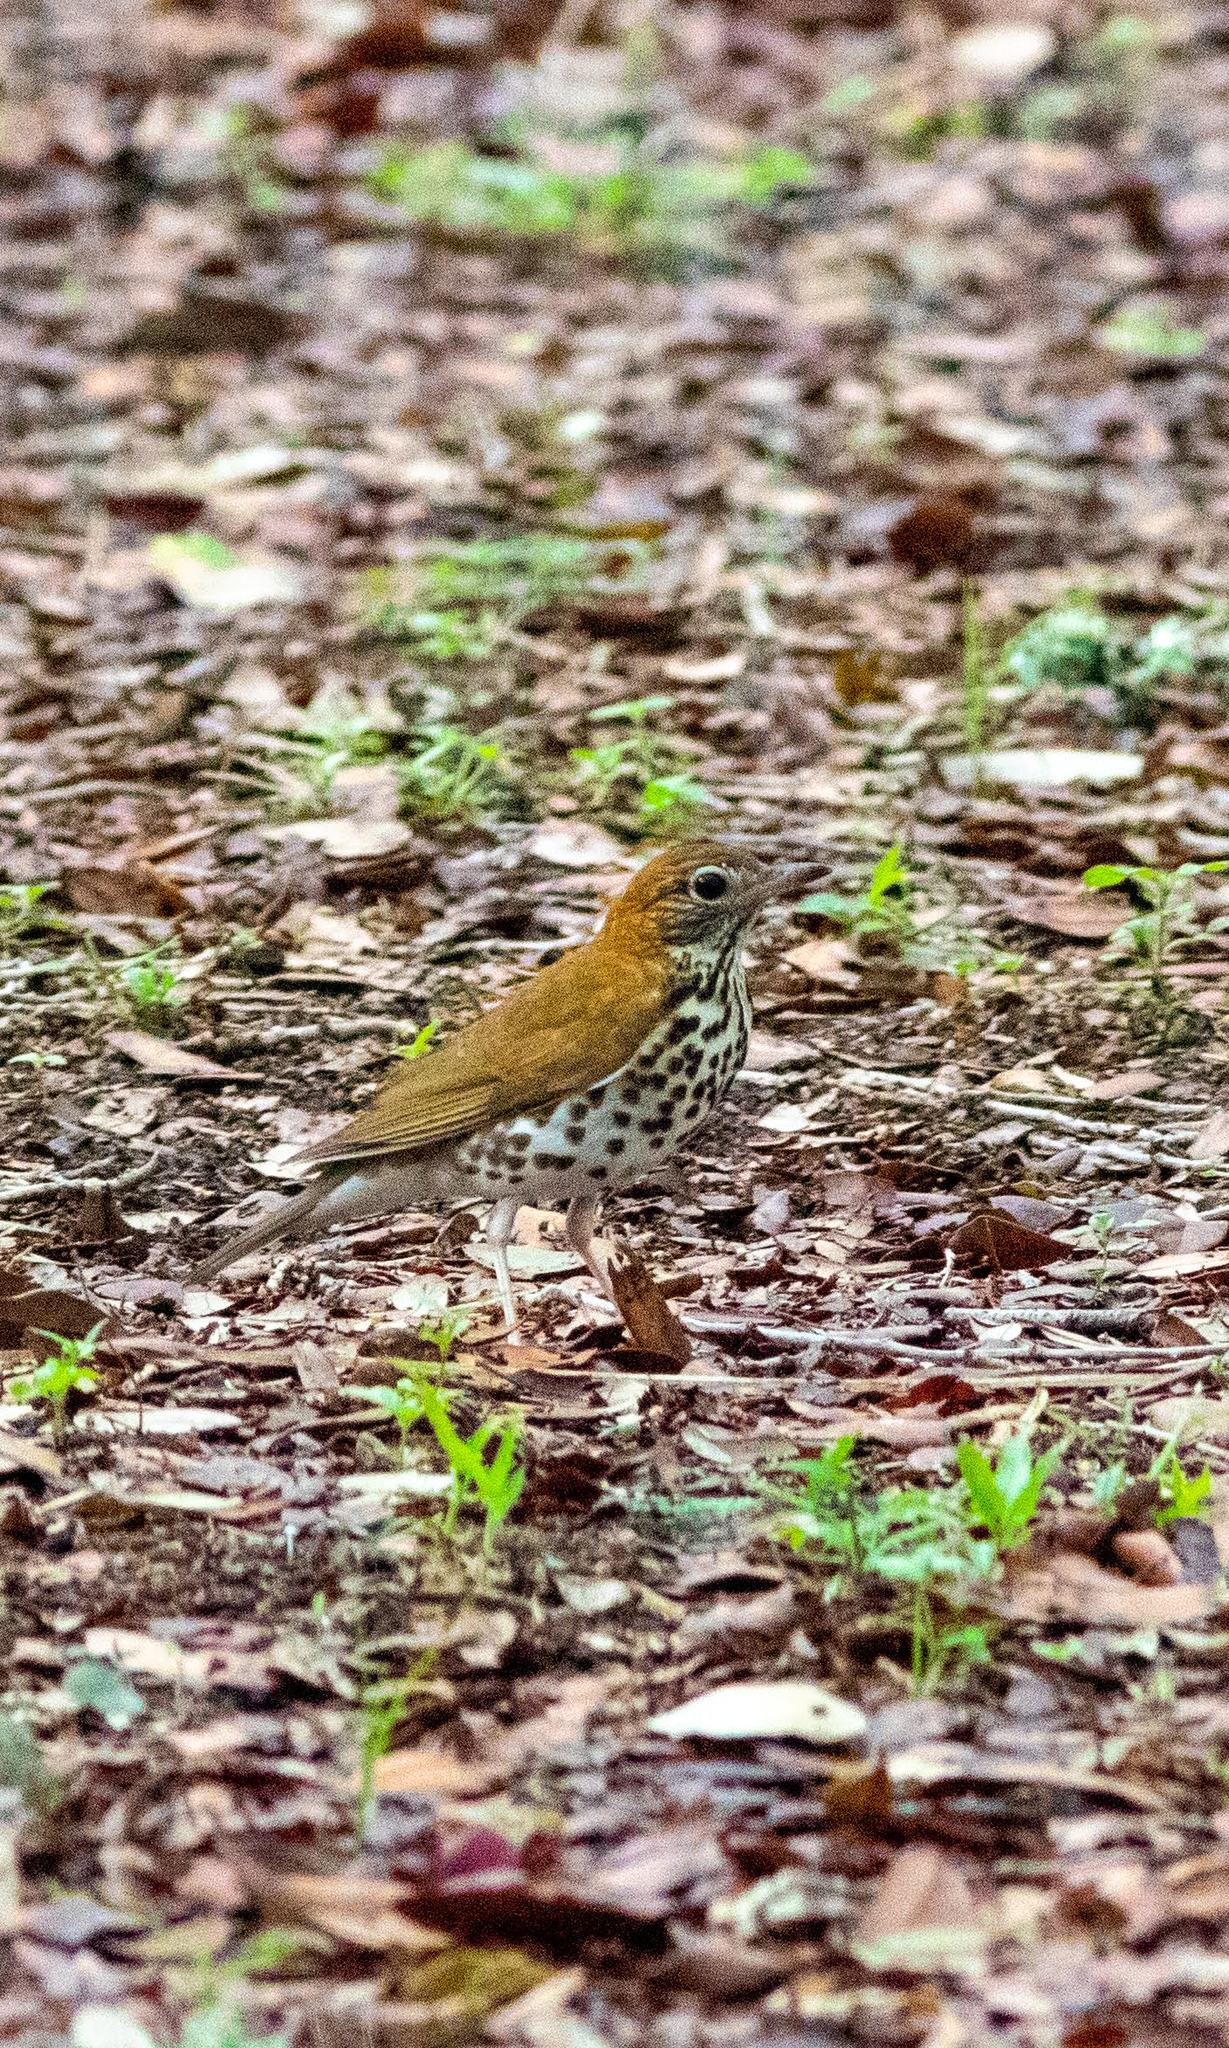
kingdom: Animalia
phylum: Chordata
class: Aves
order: Passeriformes
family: Turdidae
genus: Hylocichla
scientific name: Hylocichla mustelina
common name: Wood thrush
